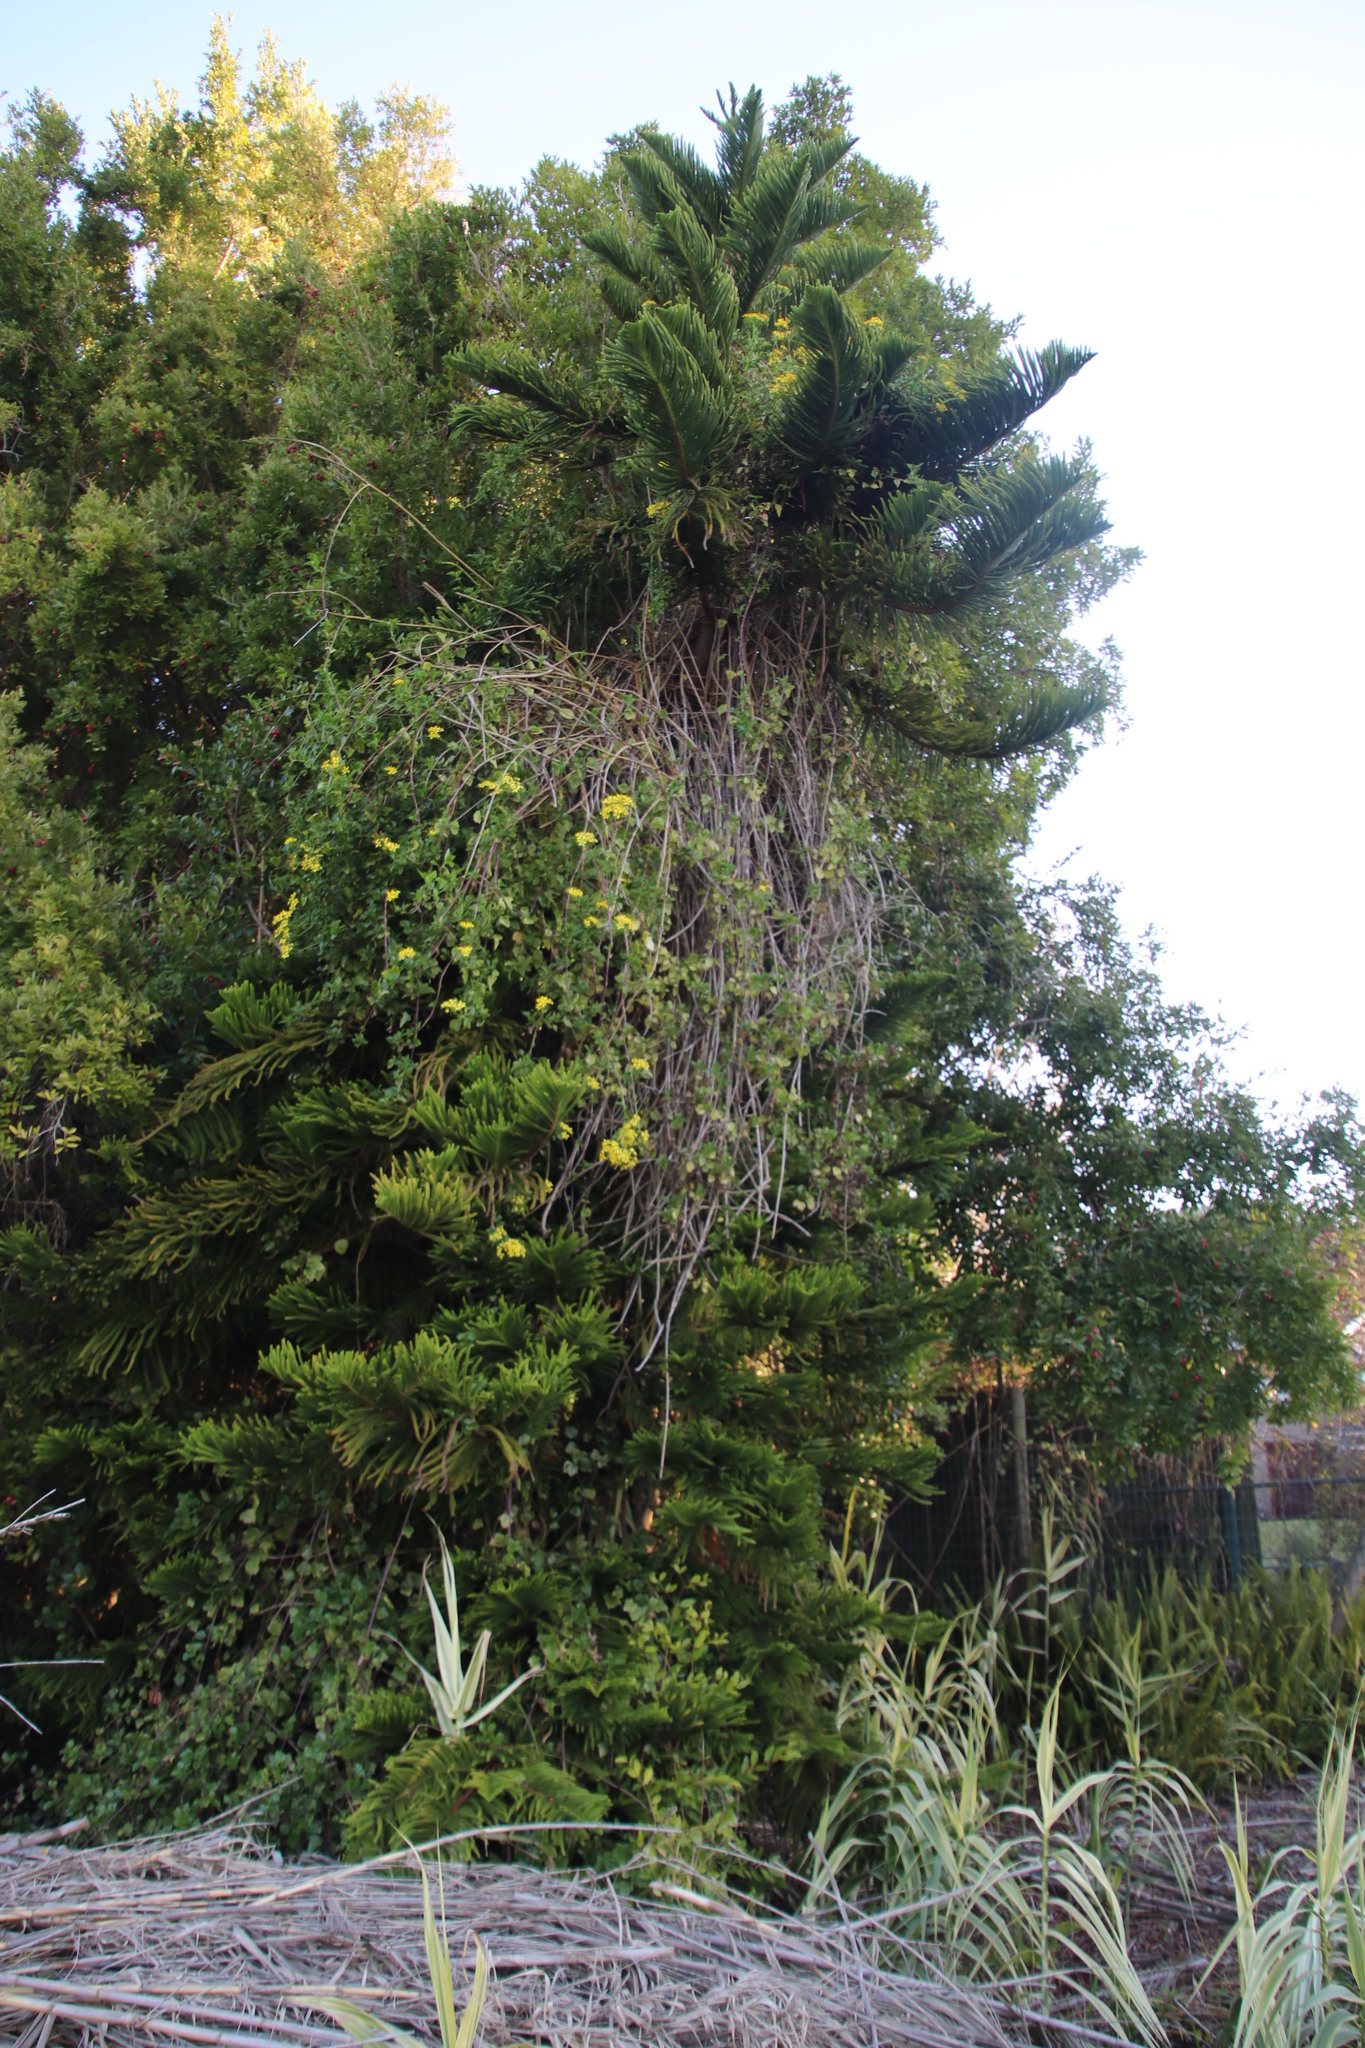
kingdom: Plantae
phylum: Tracheophyta
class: Magnoliopsida
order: Asterales
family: Asteraceae
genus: Senecio
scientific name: Senecio angulatus
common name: Climbing groundsel
